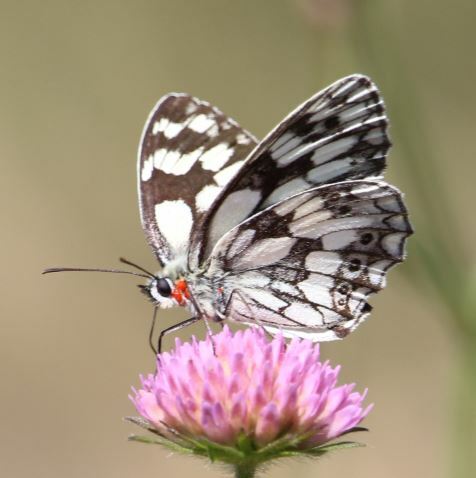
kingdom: Animalia
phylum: Arthropoda
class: Insecta
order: Lepidoptera
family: Nymphalidae
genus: Melanargia
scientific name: Melanargia galathea
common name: Marbled white
